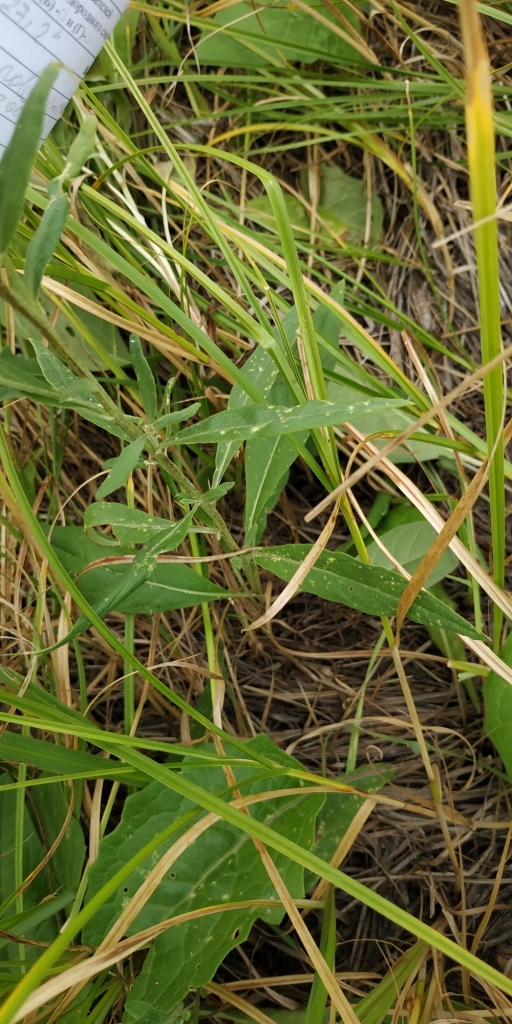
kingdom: Plantae
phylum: Tracheophyta
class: Magnoliopsida
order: Asterales
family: Asteraceae
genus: Saussurea
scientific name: Saussurea amara
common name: Alberta sawwort
